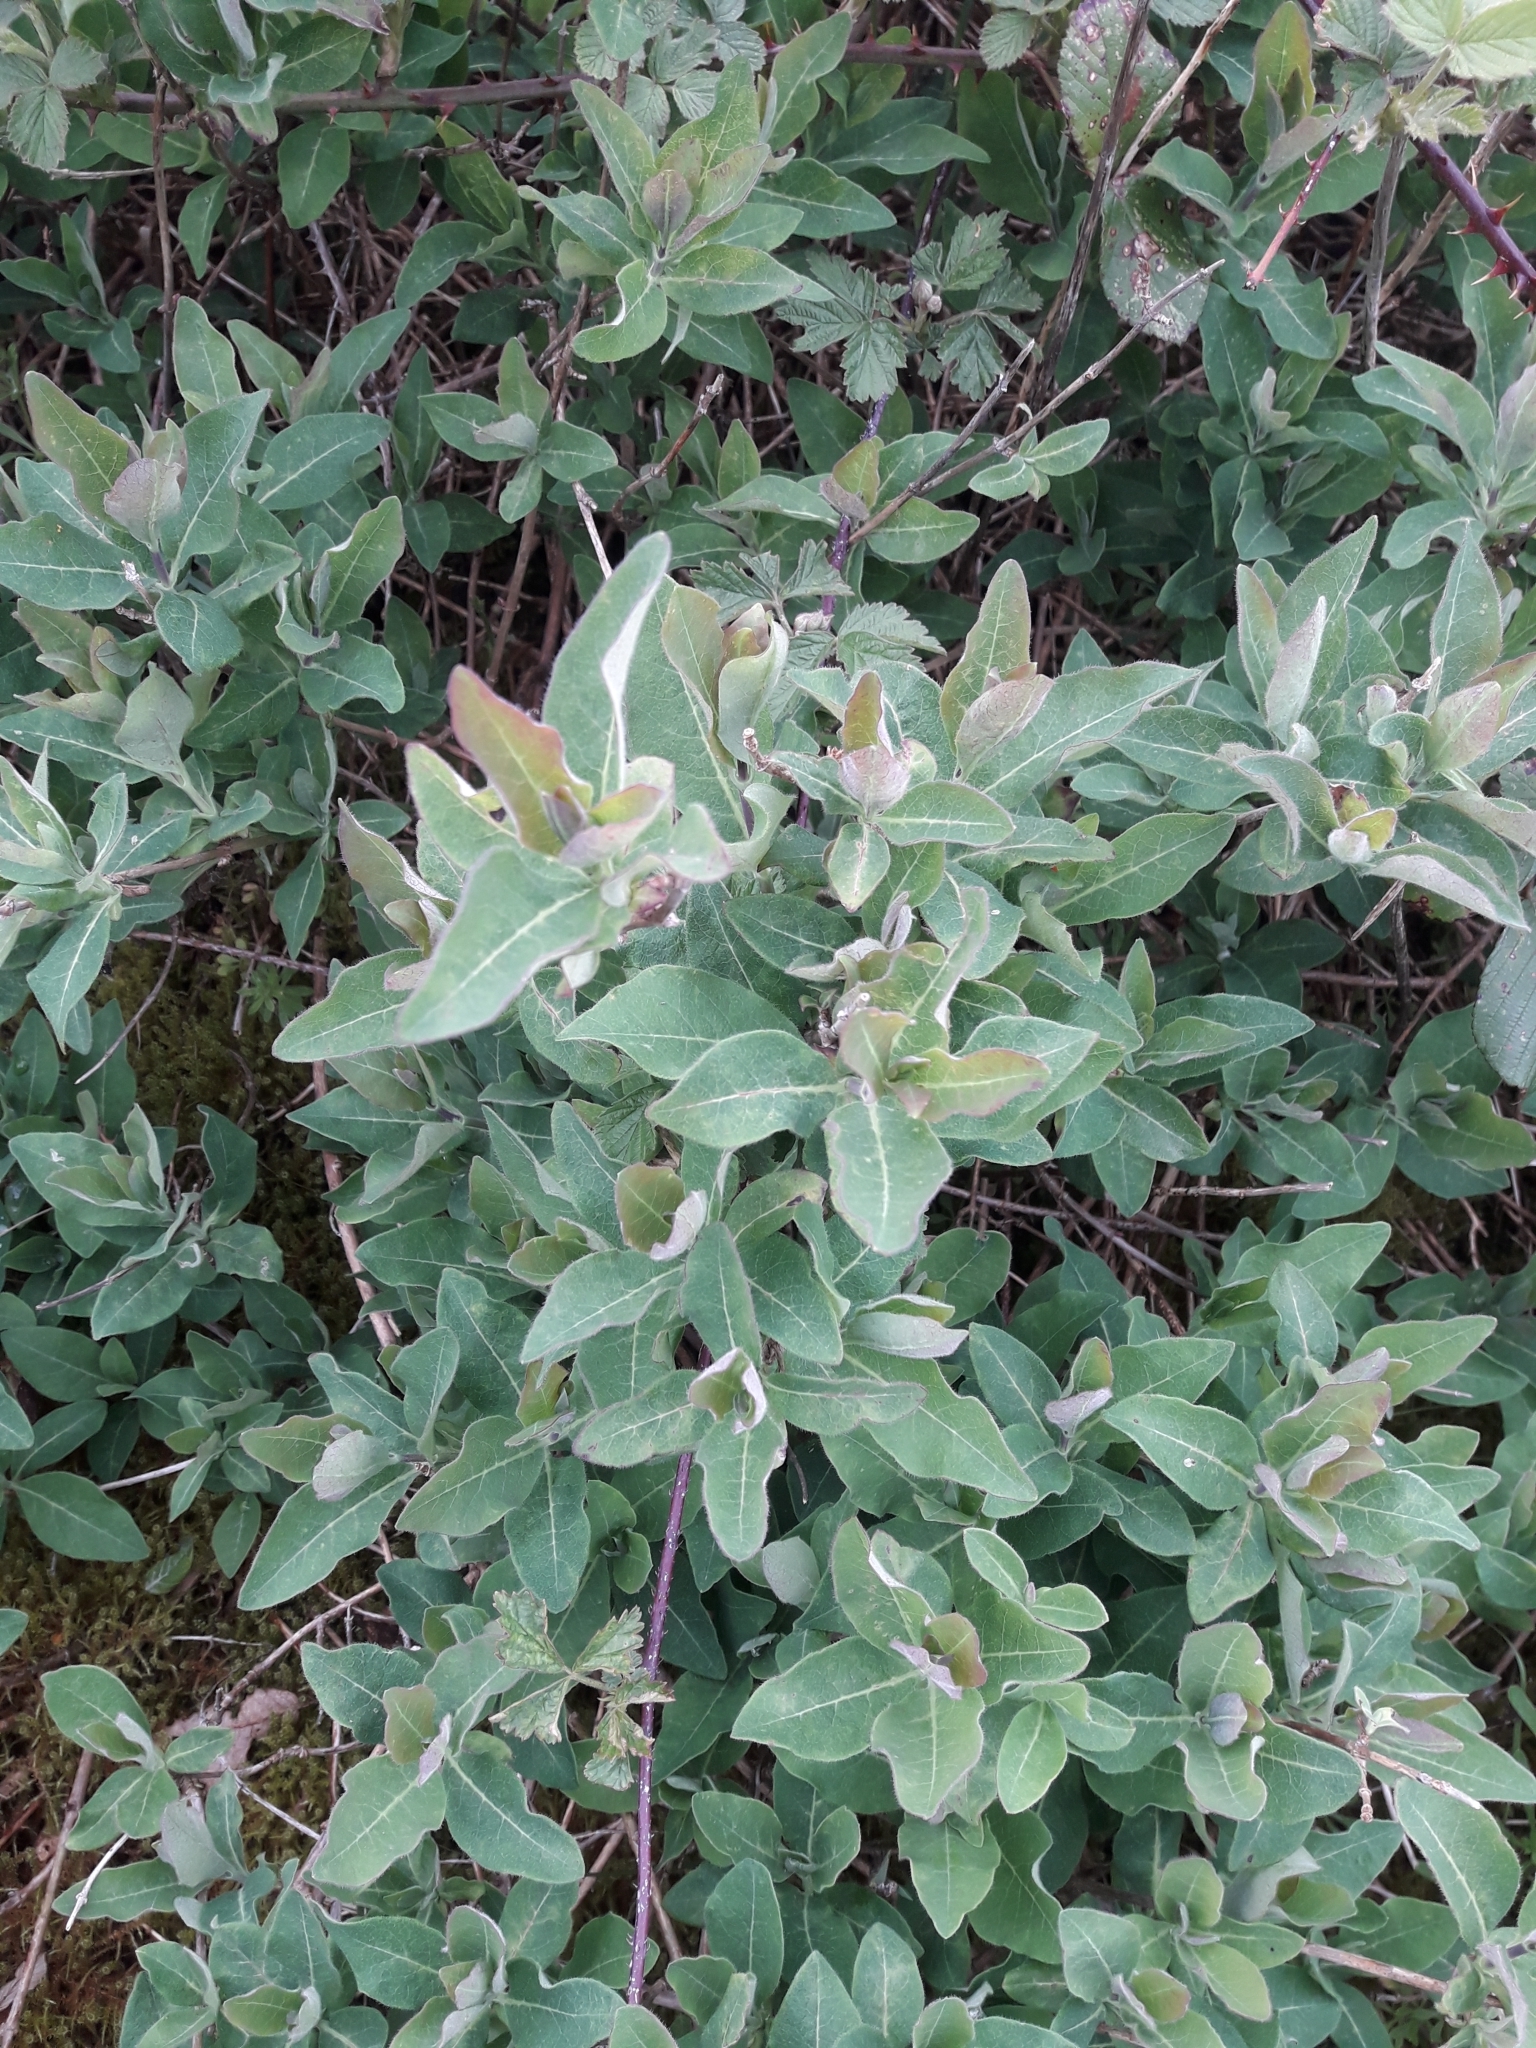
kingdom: Plantae
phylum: Tracheophyta
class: Magnoliopsida
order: Dipsacales
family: Caprifoliaceae
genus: Lonicera
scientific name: Lonicera periclymenum
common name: European honeysuckle
